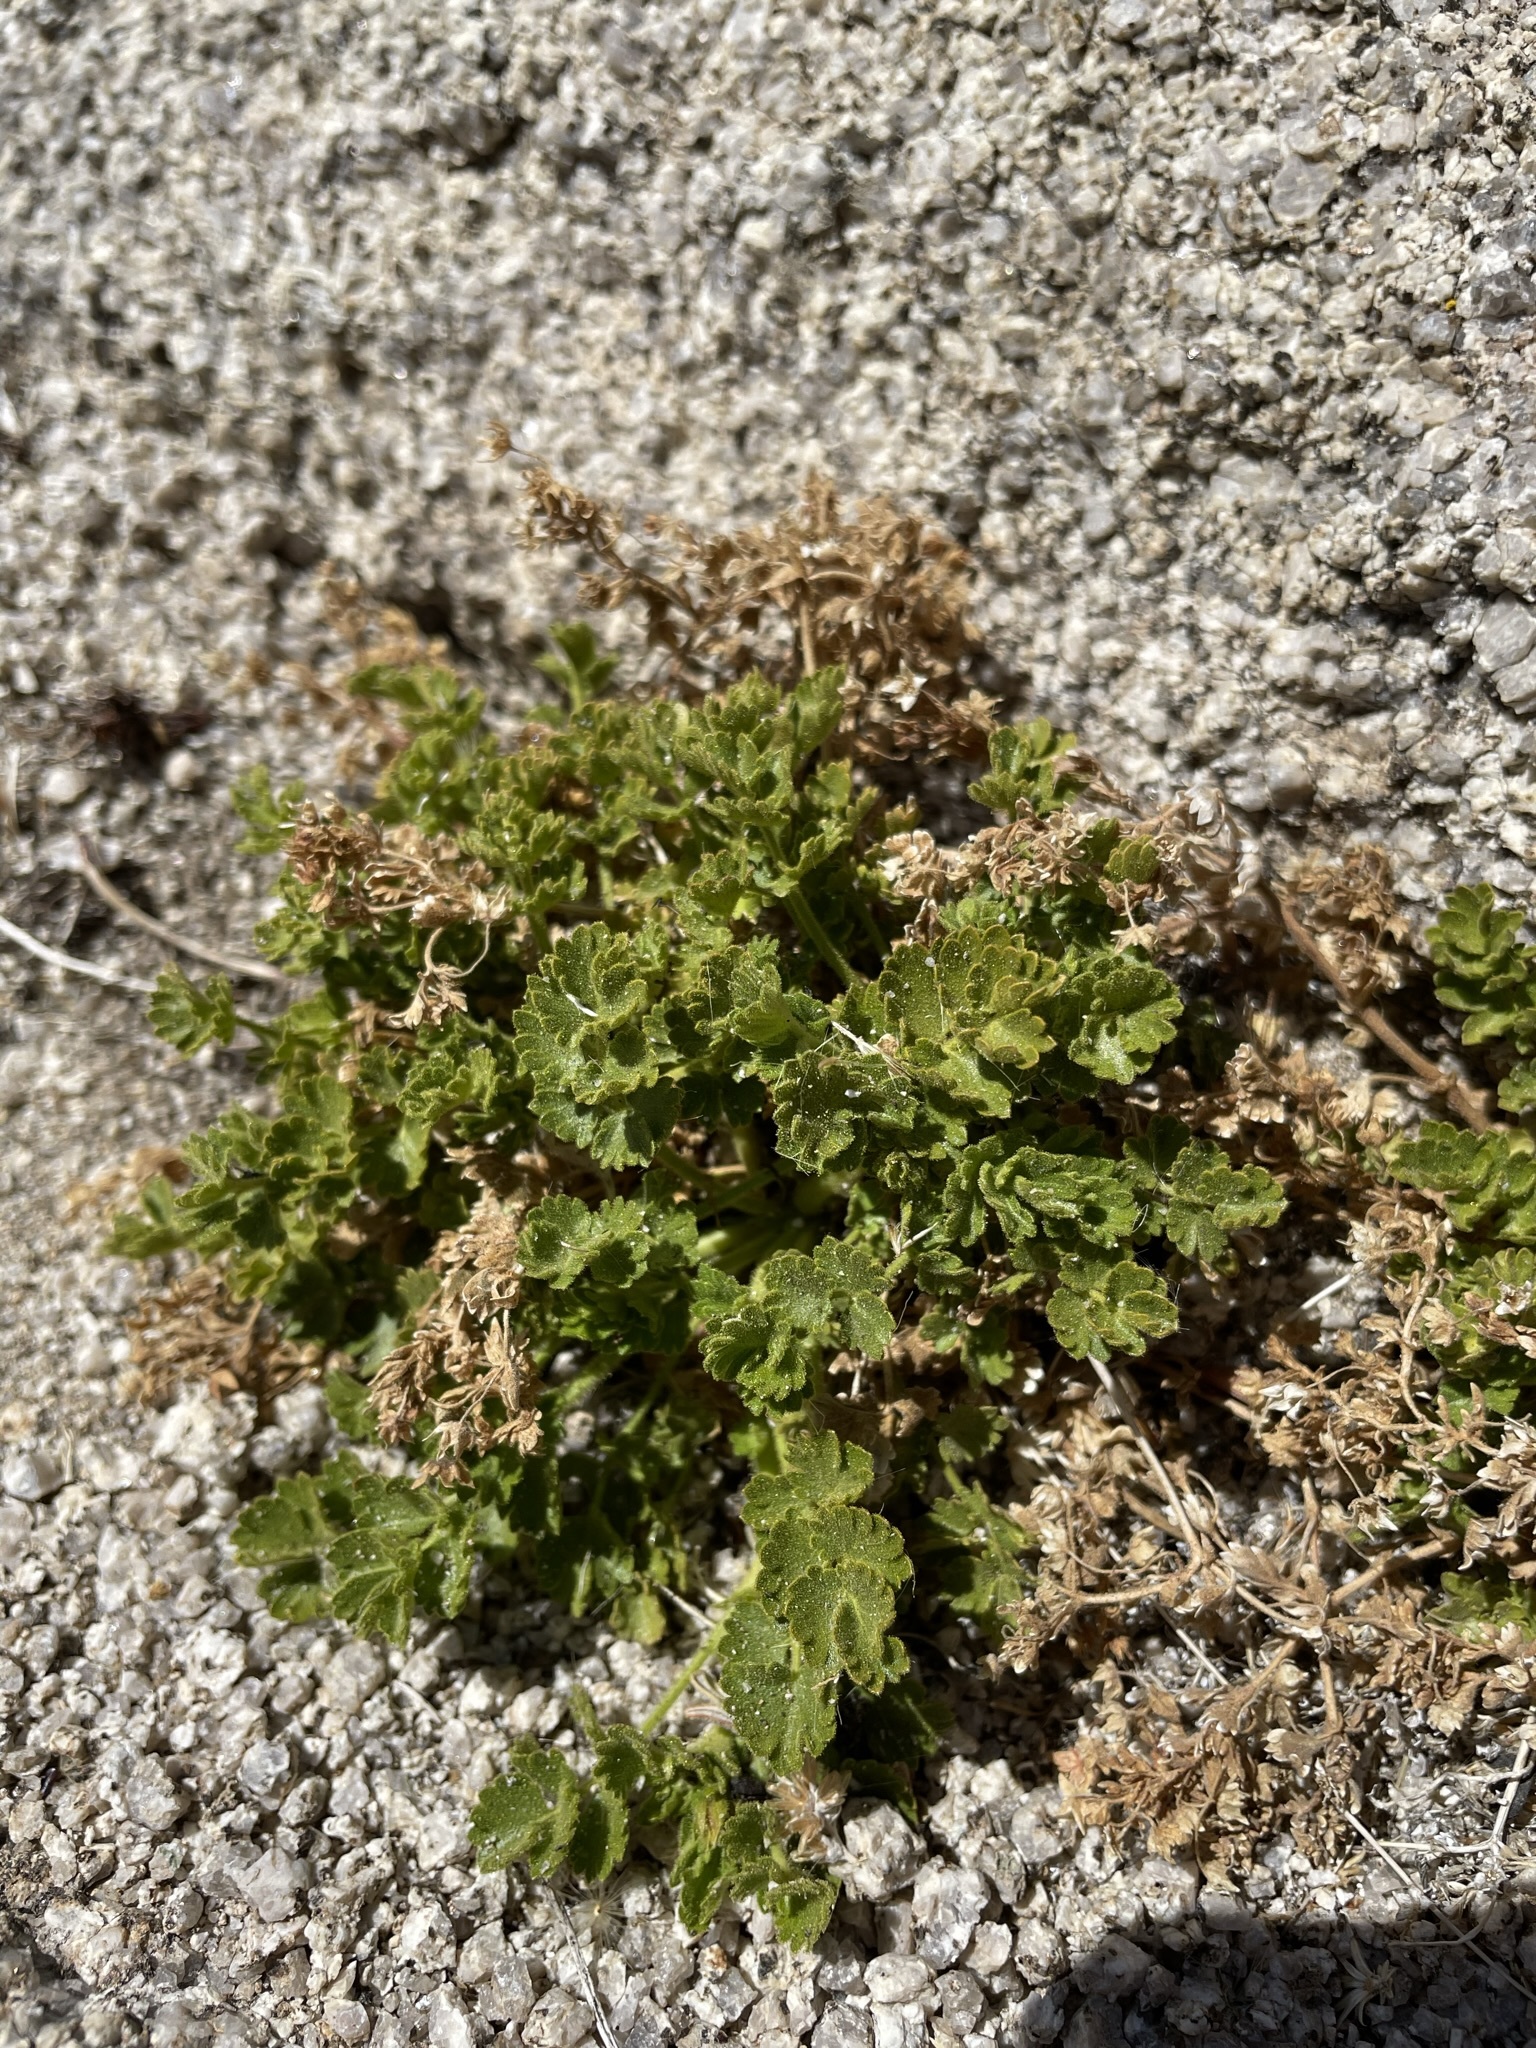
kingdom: Plantae
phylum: Tracheophyta
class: Magnoliopsida
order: Rosales
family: Rosaceae
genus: Potentilla
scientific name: Potentilla saxosa
